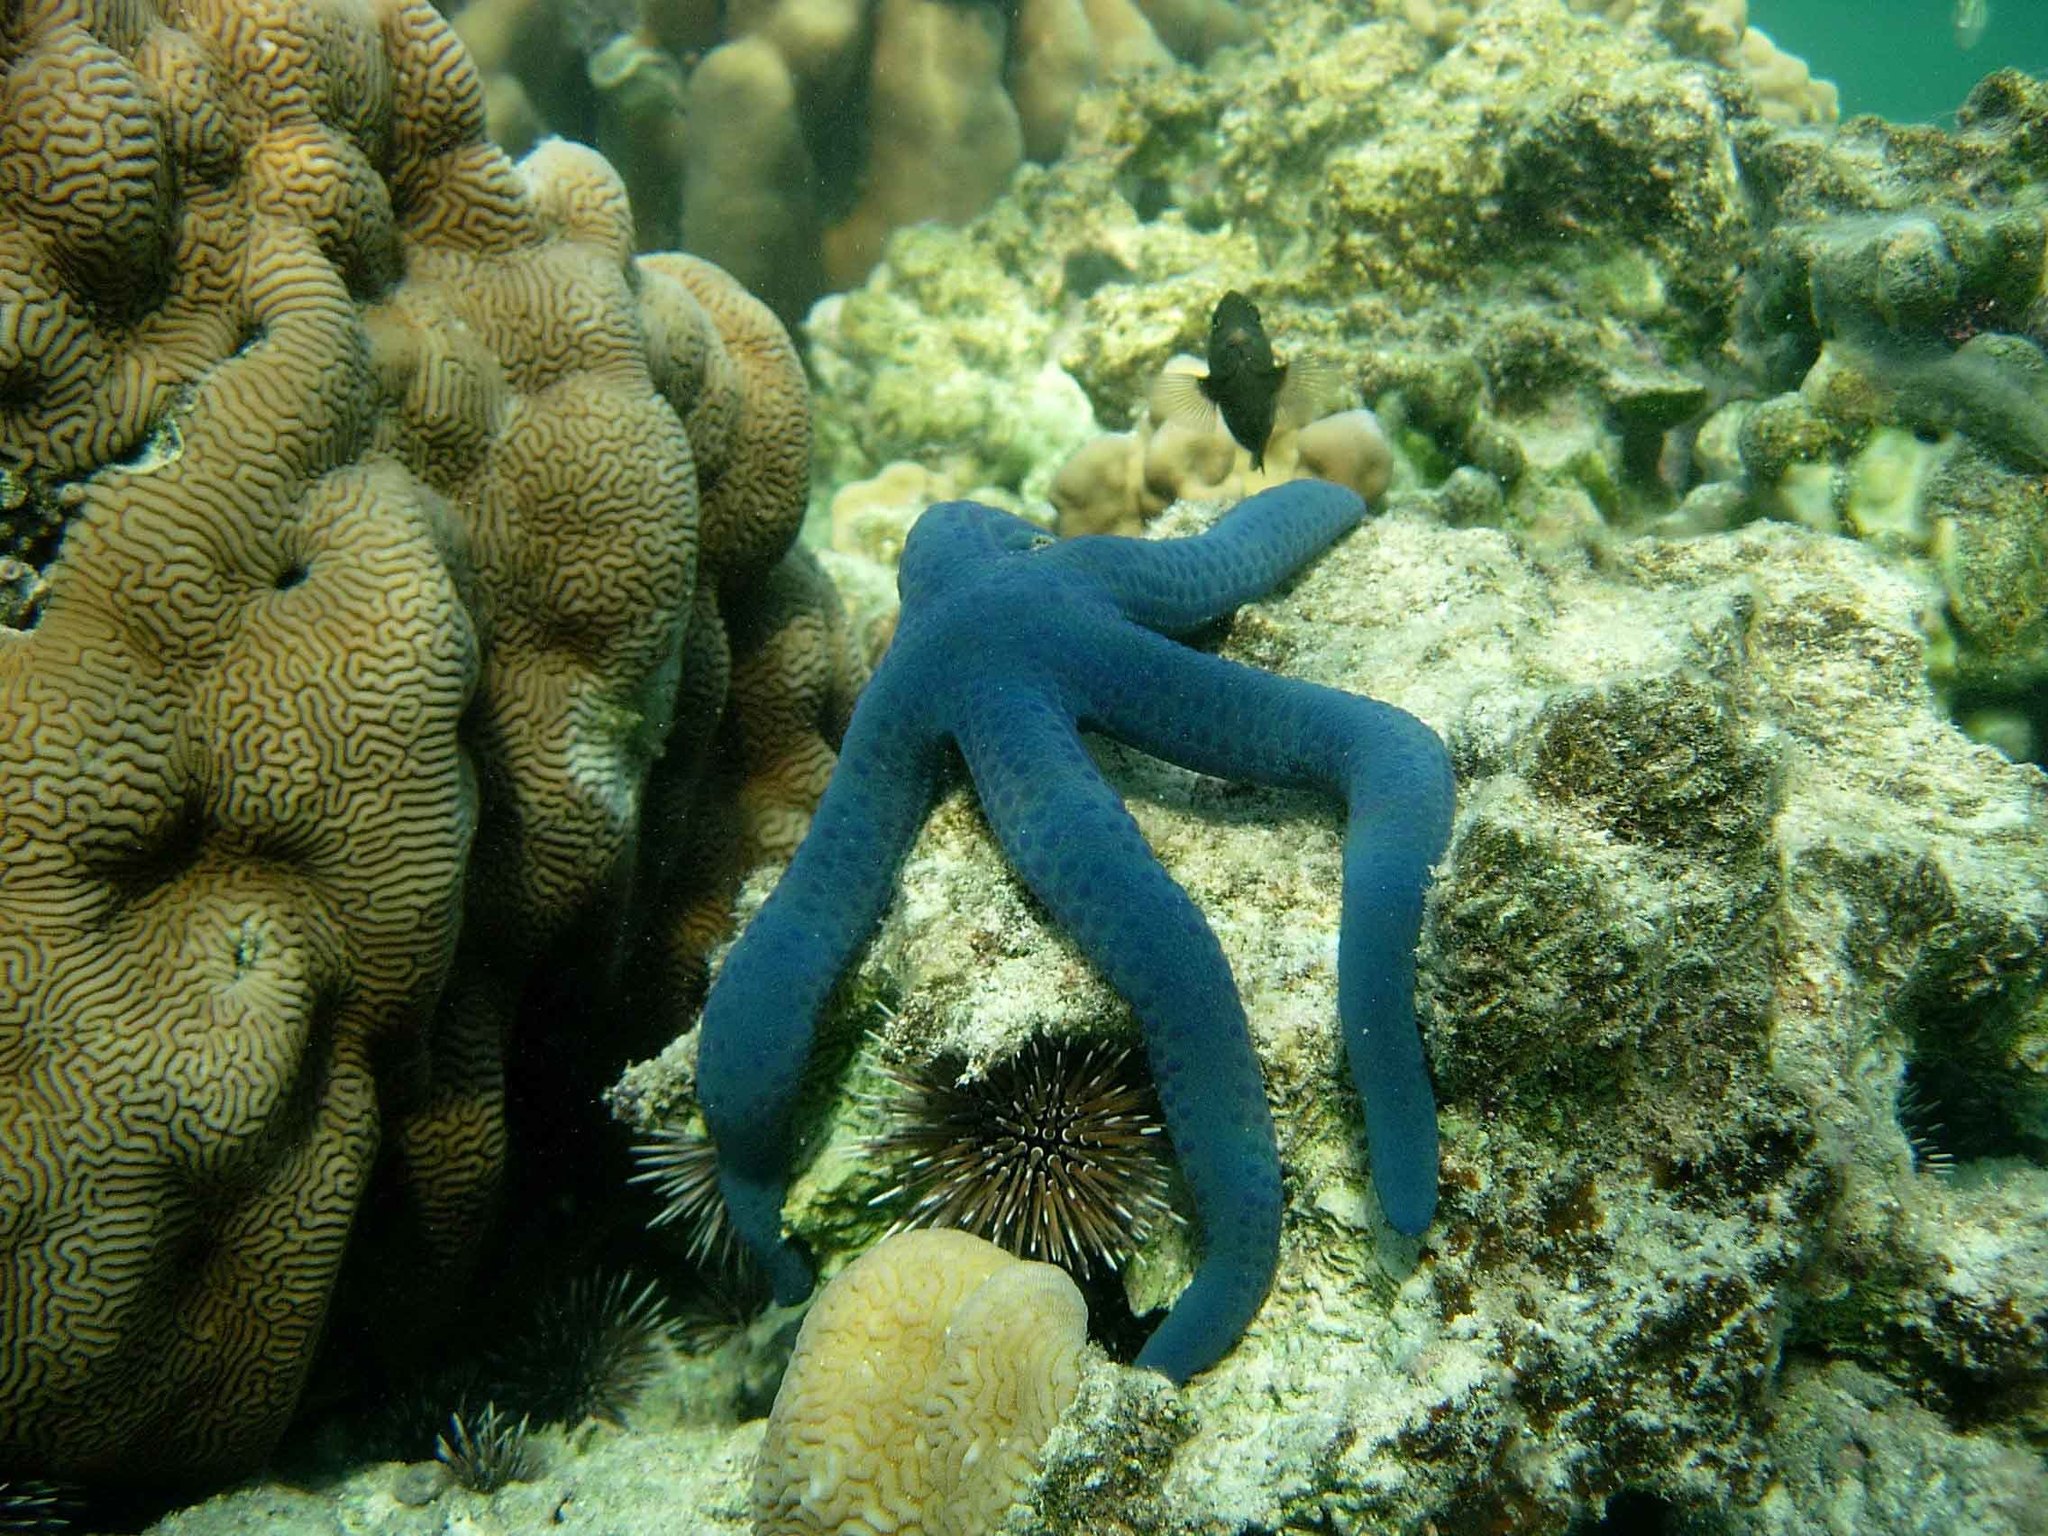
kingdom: Animalia
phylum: Echinodermata
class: Asteroidea
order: Valvatida
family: Ophidiasteridae
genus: Linckia
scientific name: Linckia laevigata
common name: Azure sea star
